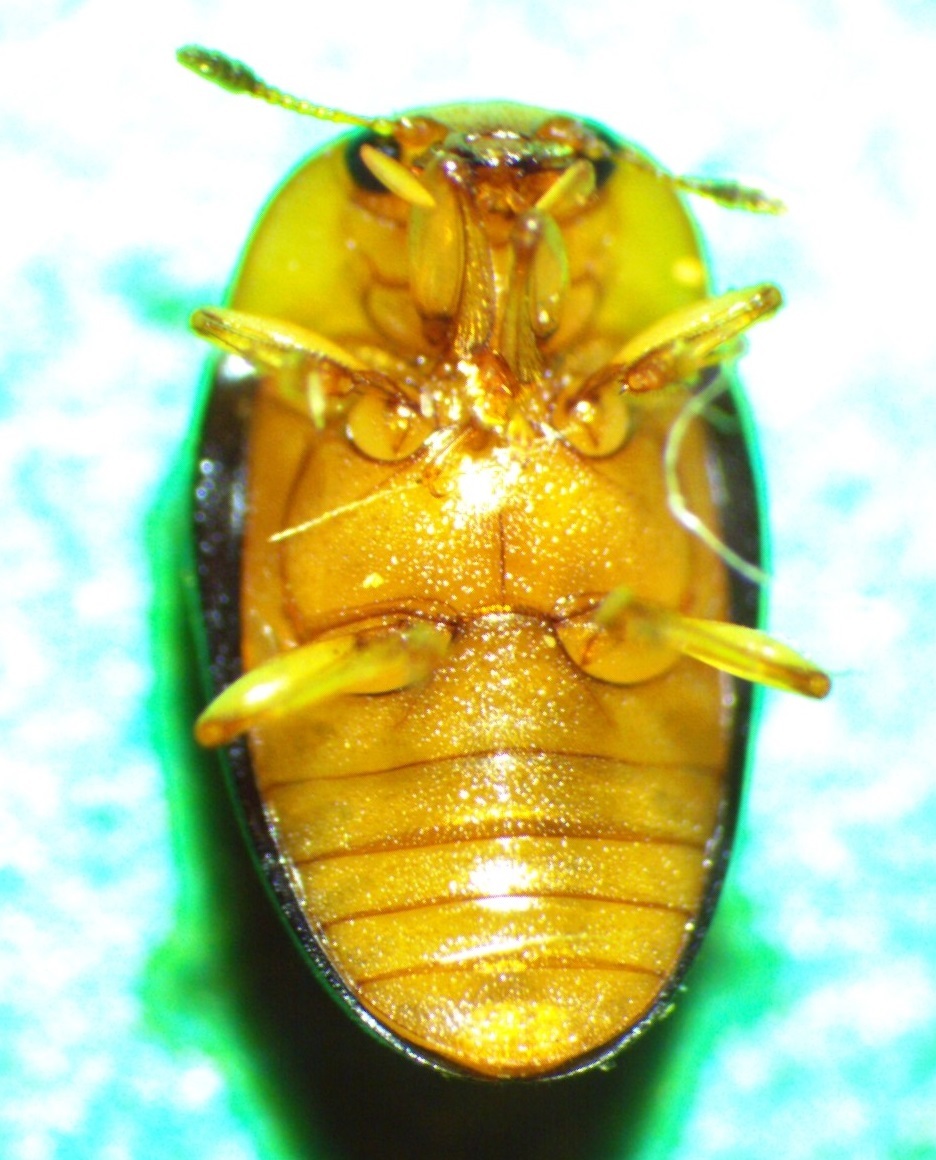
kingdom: Animalia
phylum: Arthropoda
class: Insecta
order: Coleoptera
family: Erotylidae
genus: Triplax
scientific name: Triplax thoracica
